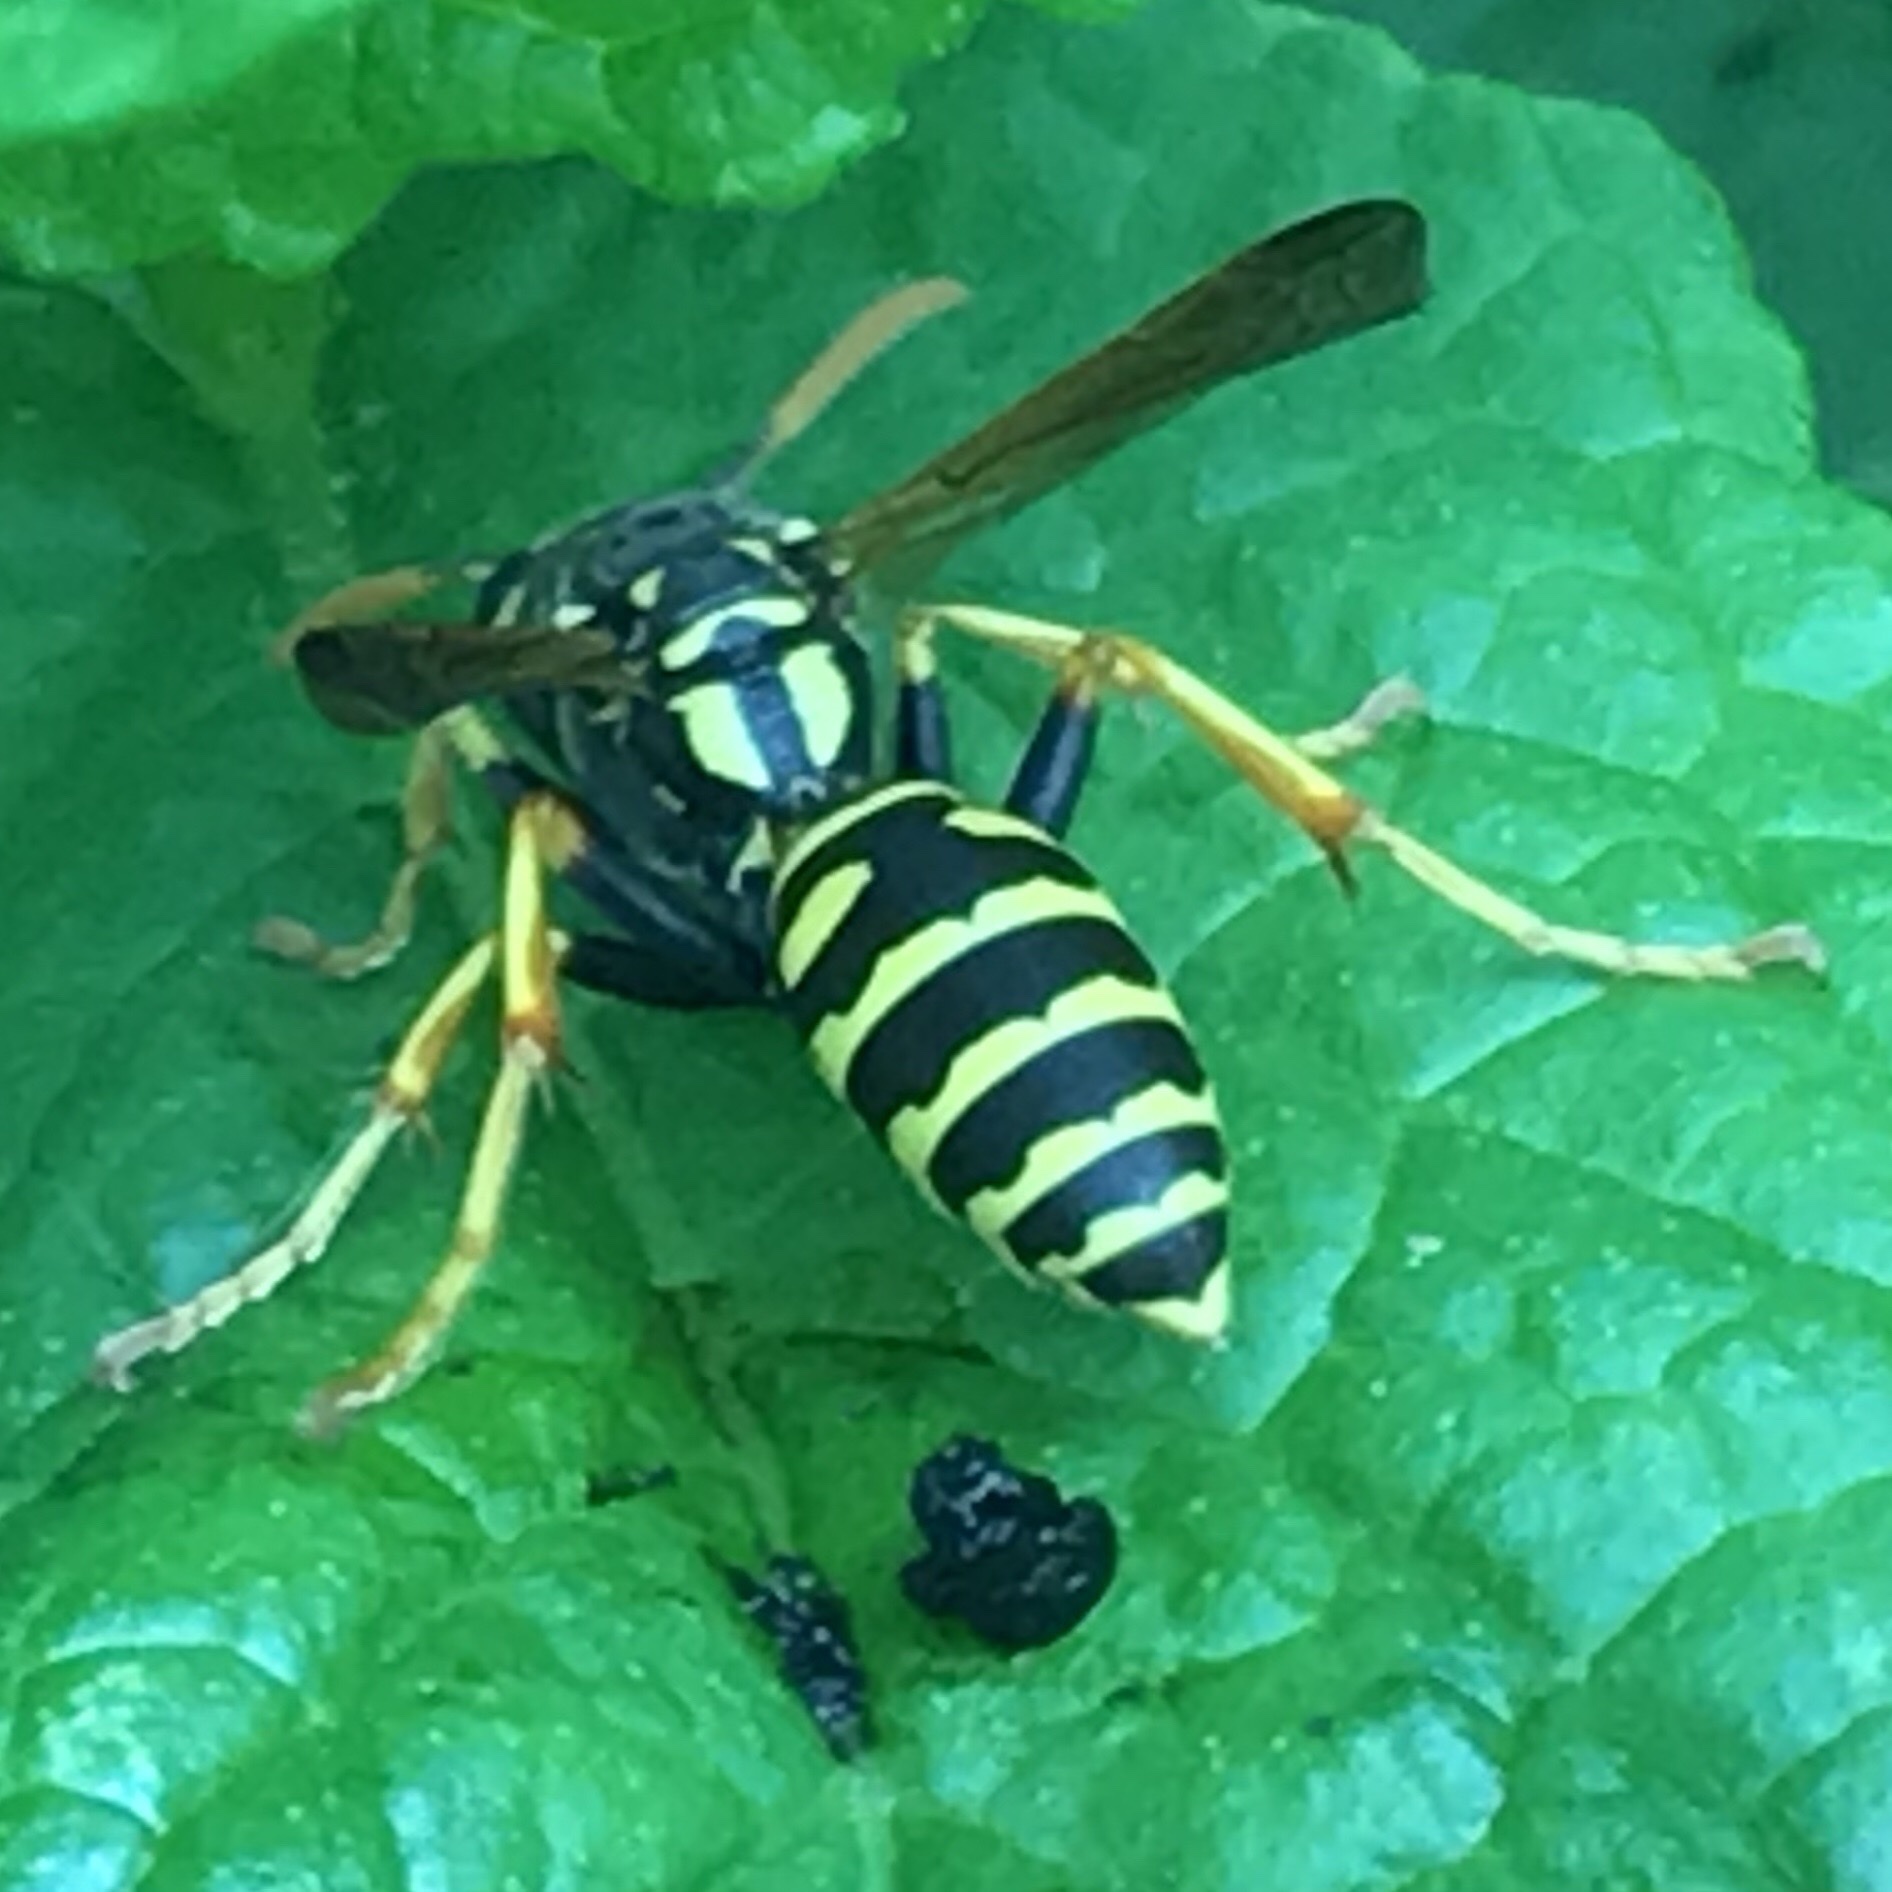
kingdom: Animalia
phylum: Arthropoda
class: Insecta
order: Hymenoptera
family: Eumenidae
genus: Polistes
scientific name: Polistes dominula
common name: Paper wasp
